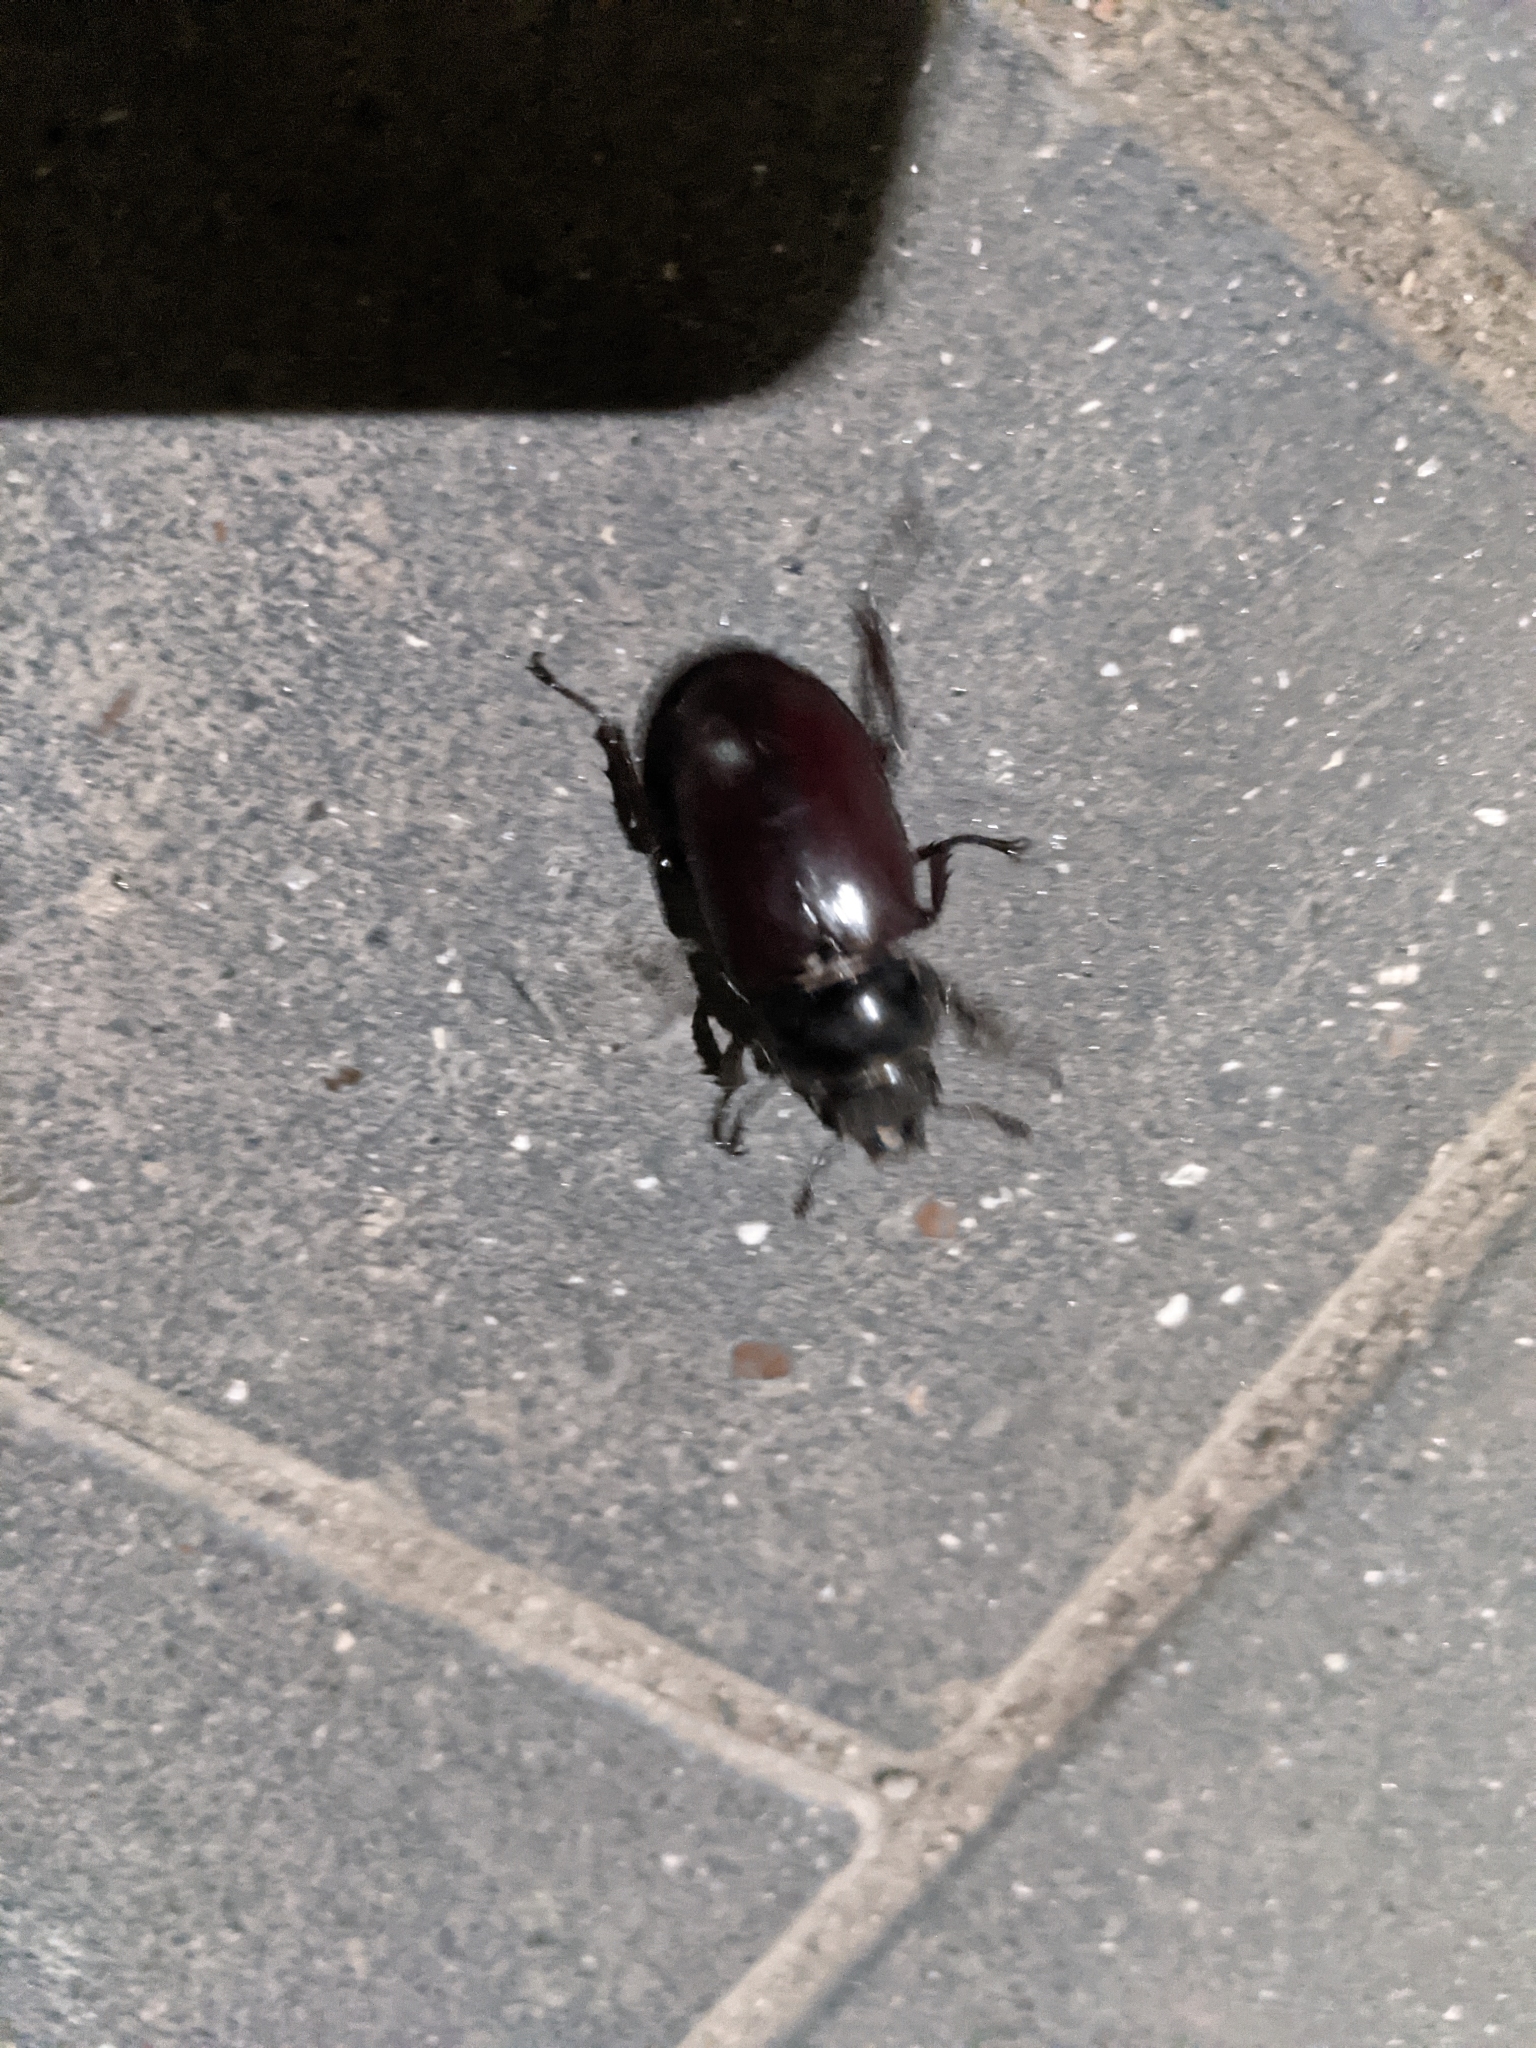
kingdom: Animalia
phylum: Arthropoda
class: Insecta
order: Coleoptera
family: Lucanidae
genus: Lucanus
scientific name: Lucanus cervus
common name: Stag beetle
